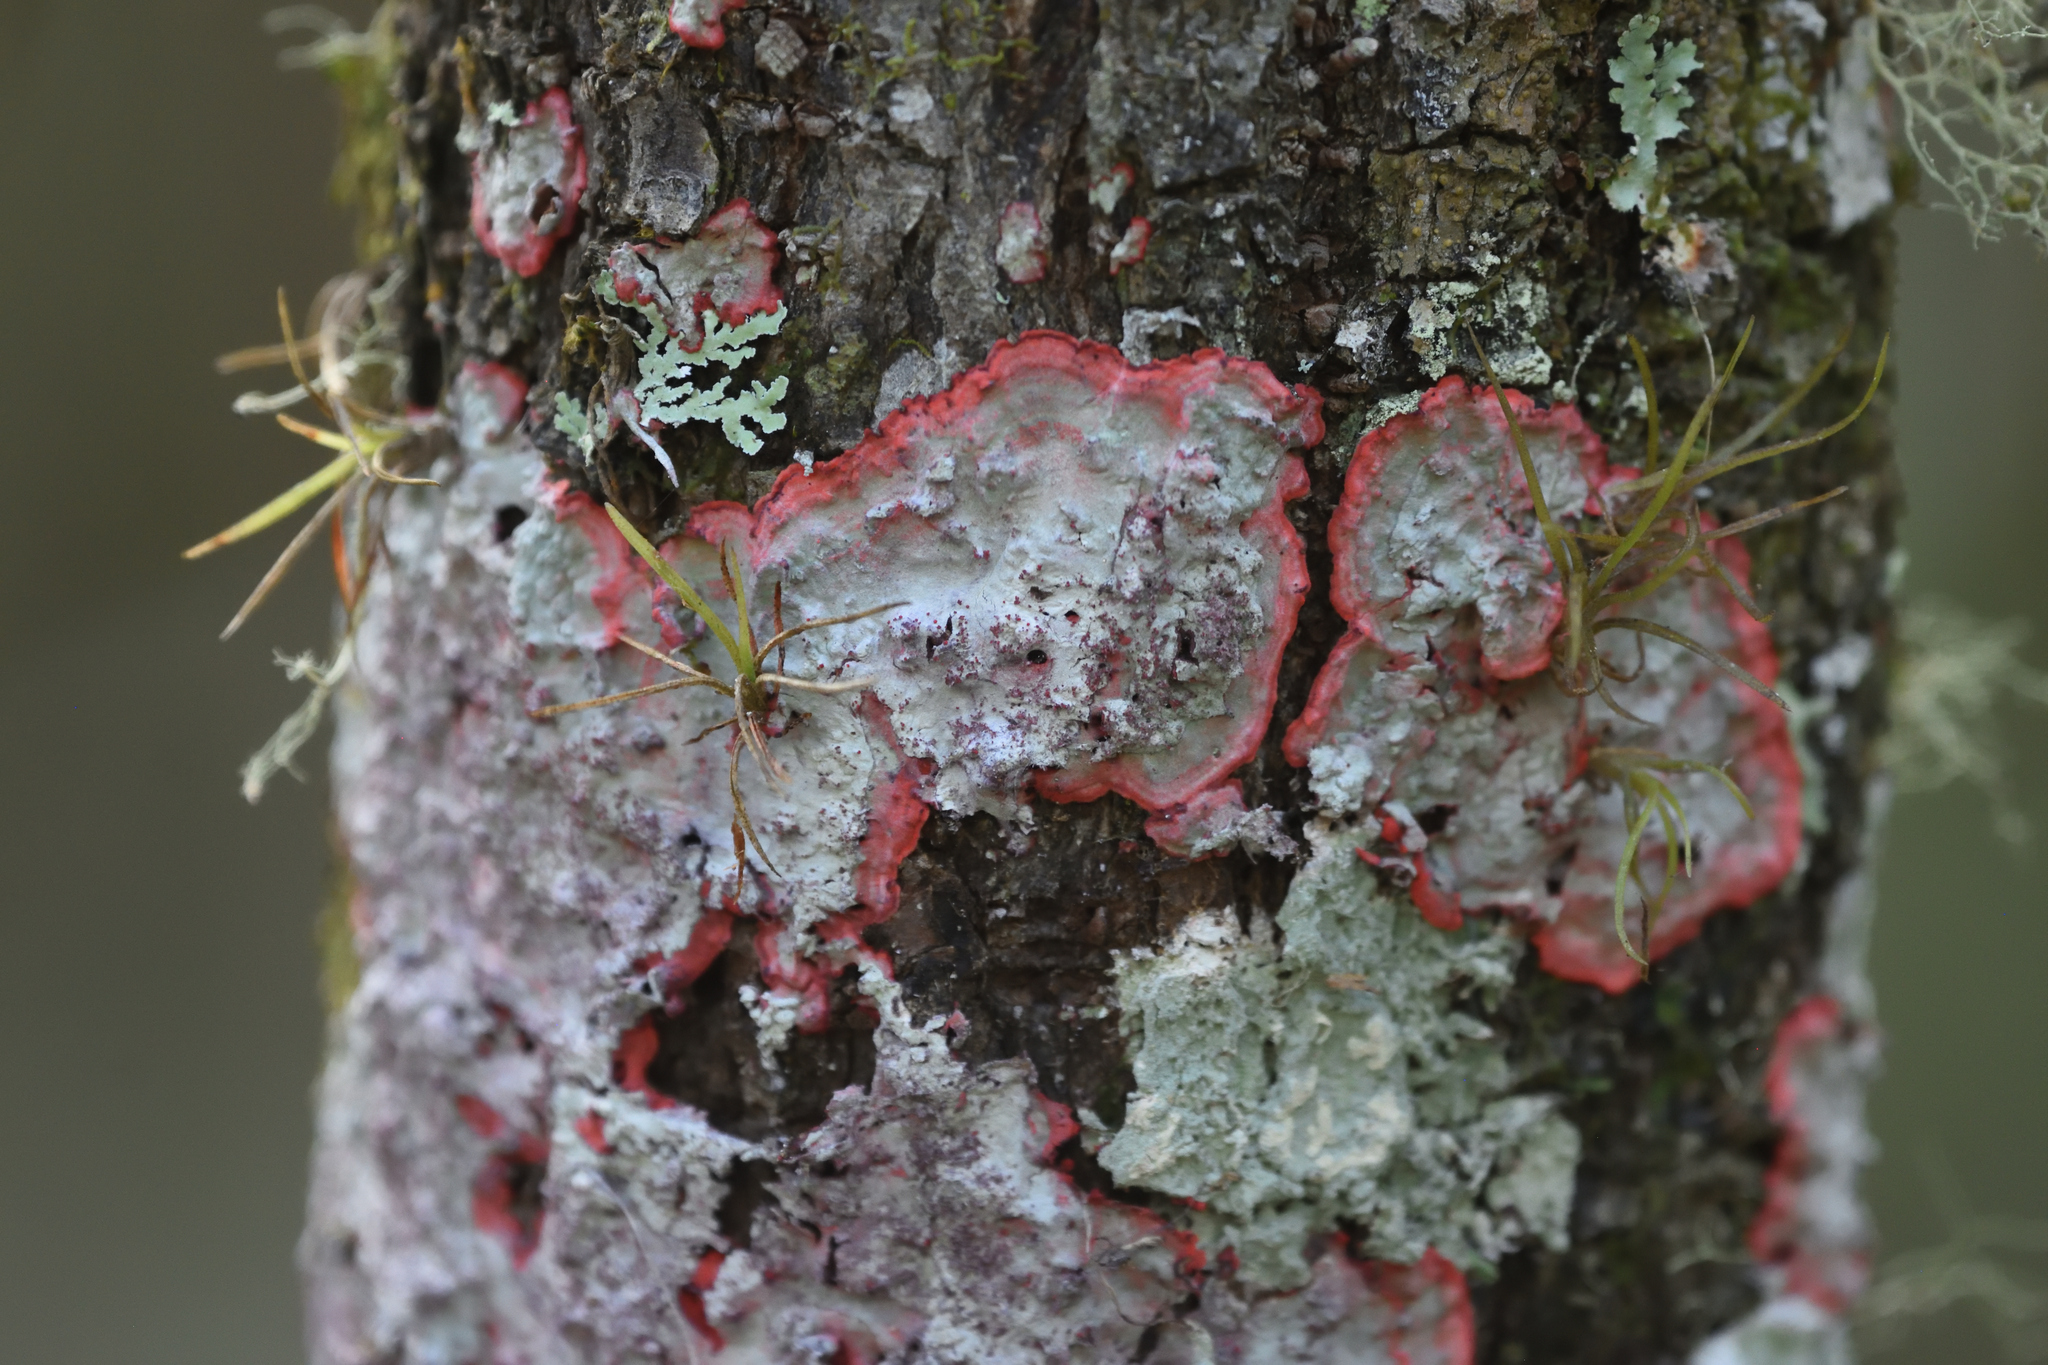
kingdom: Fungi
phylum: Ascomycota
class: Arthoniomycetes
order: Arthoniales
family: Arthoniaceae
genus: Herpothallon
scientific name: Herpothallon rubrocinctum
